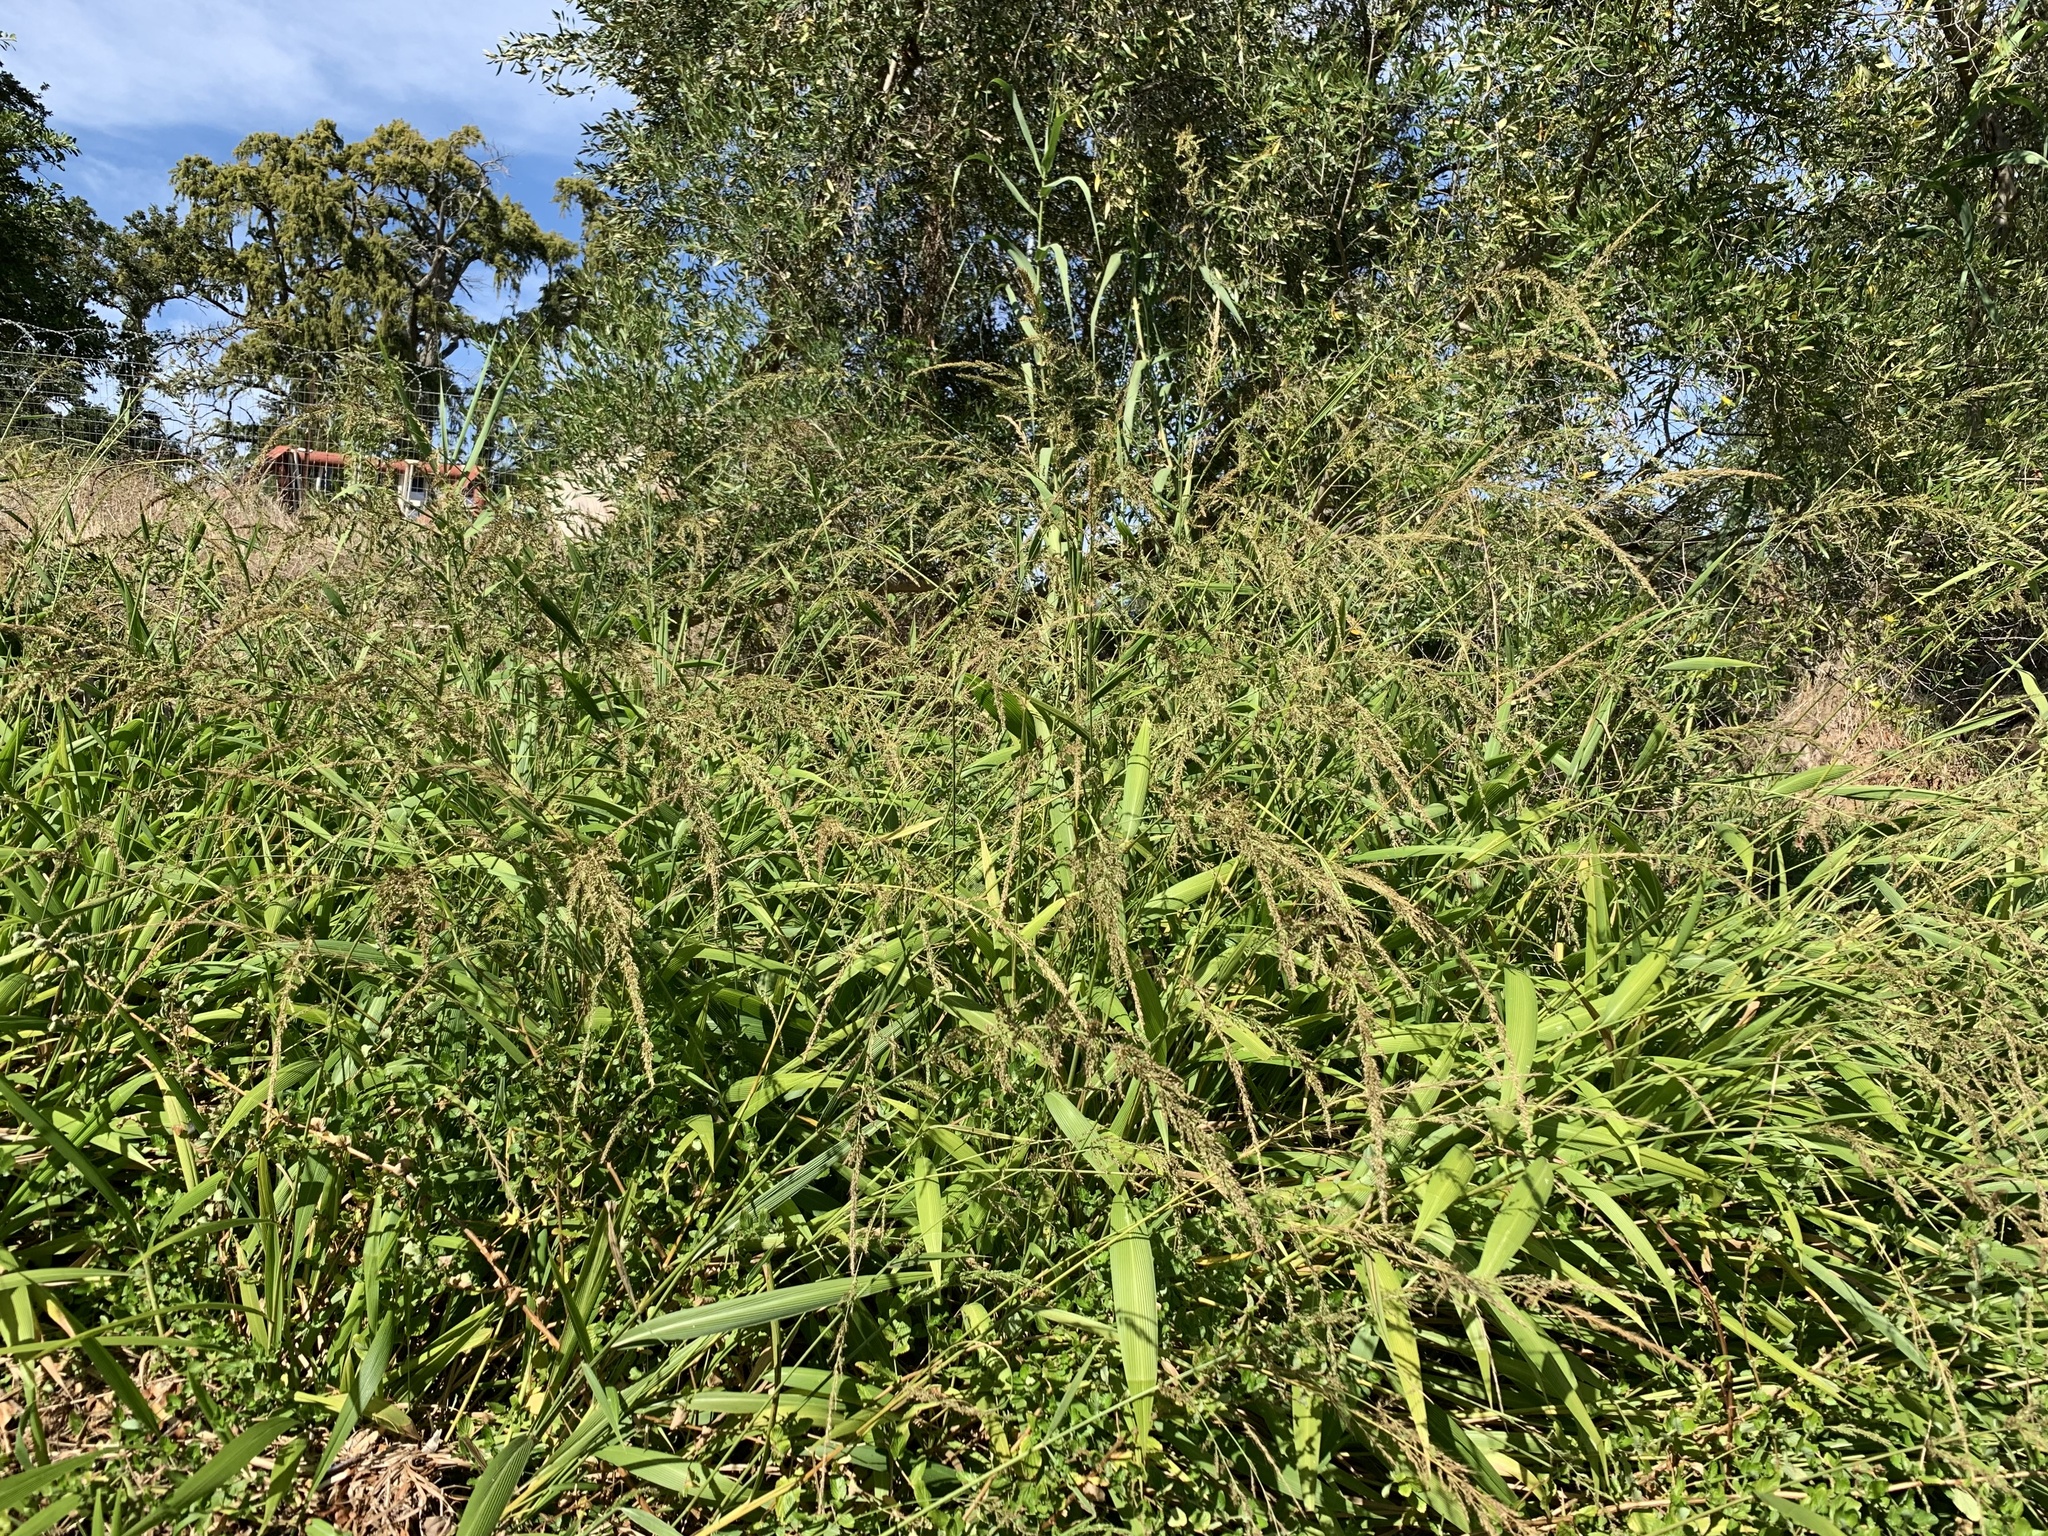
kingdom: Plantae
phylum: Tracheophyta
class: Liliopsida
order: Poales
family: Poaceae
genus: Setaria
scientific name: Setaria megaphylla
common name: Bigleaf bristlegrass
